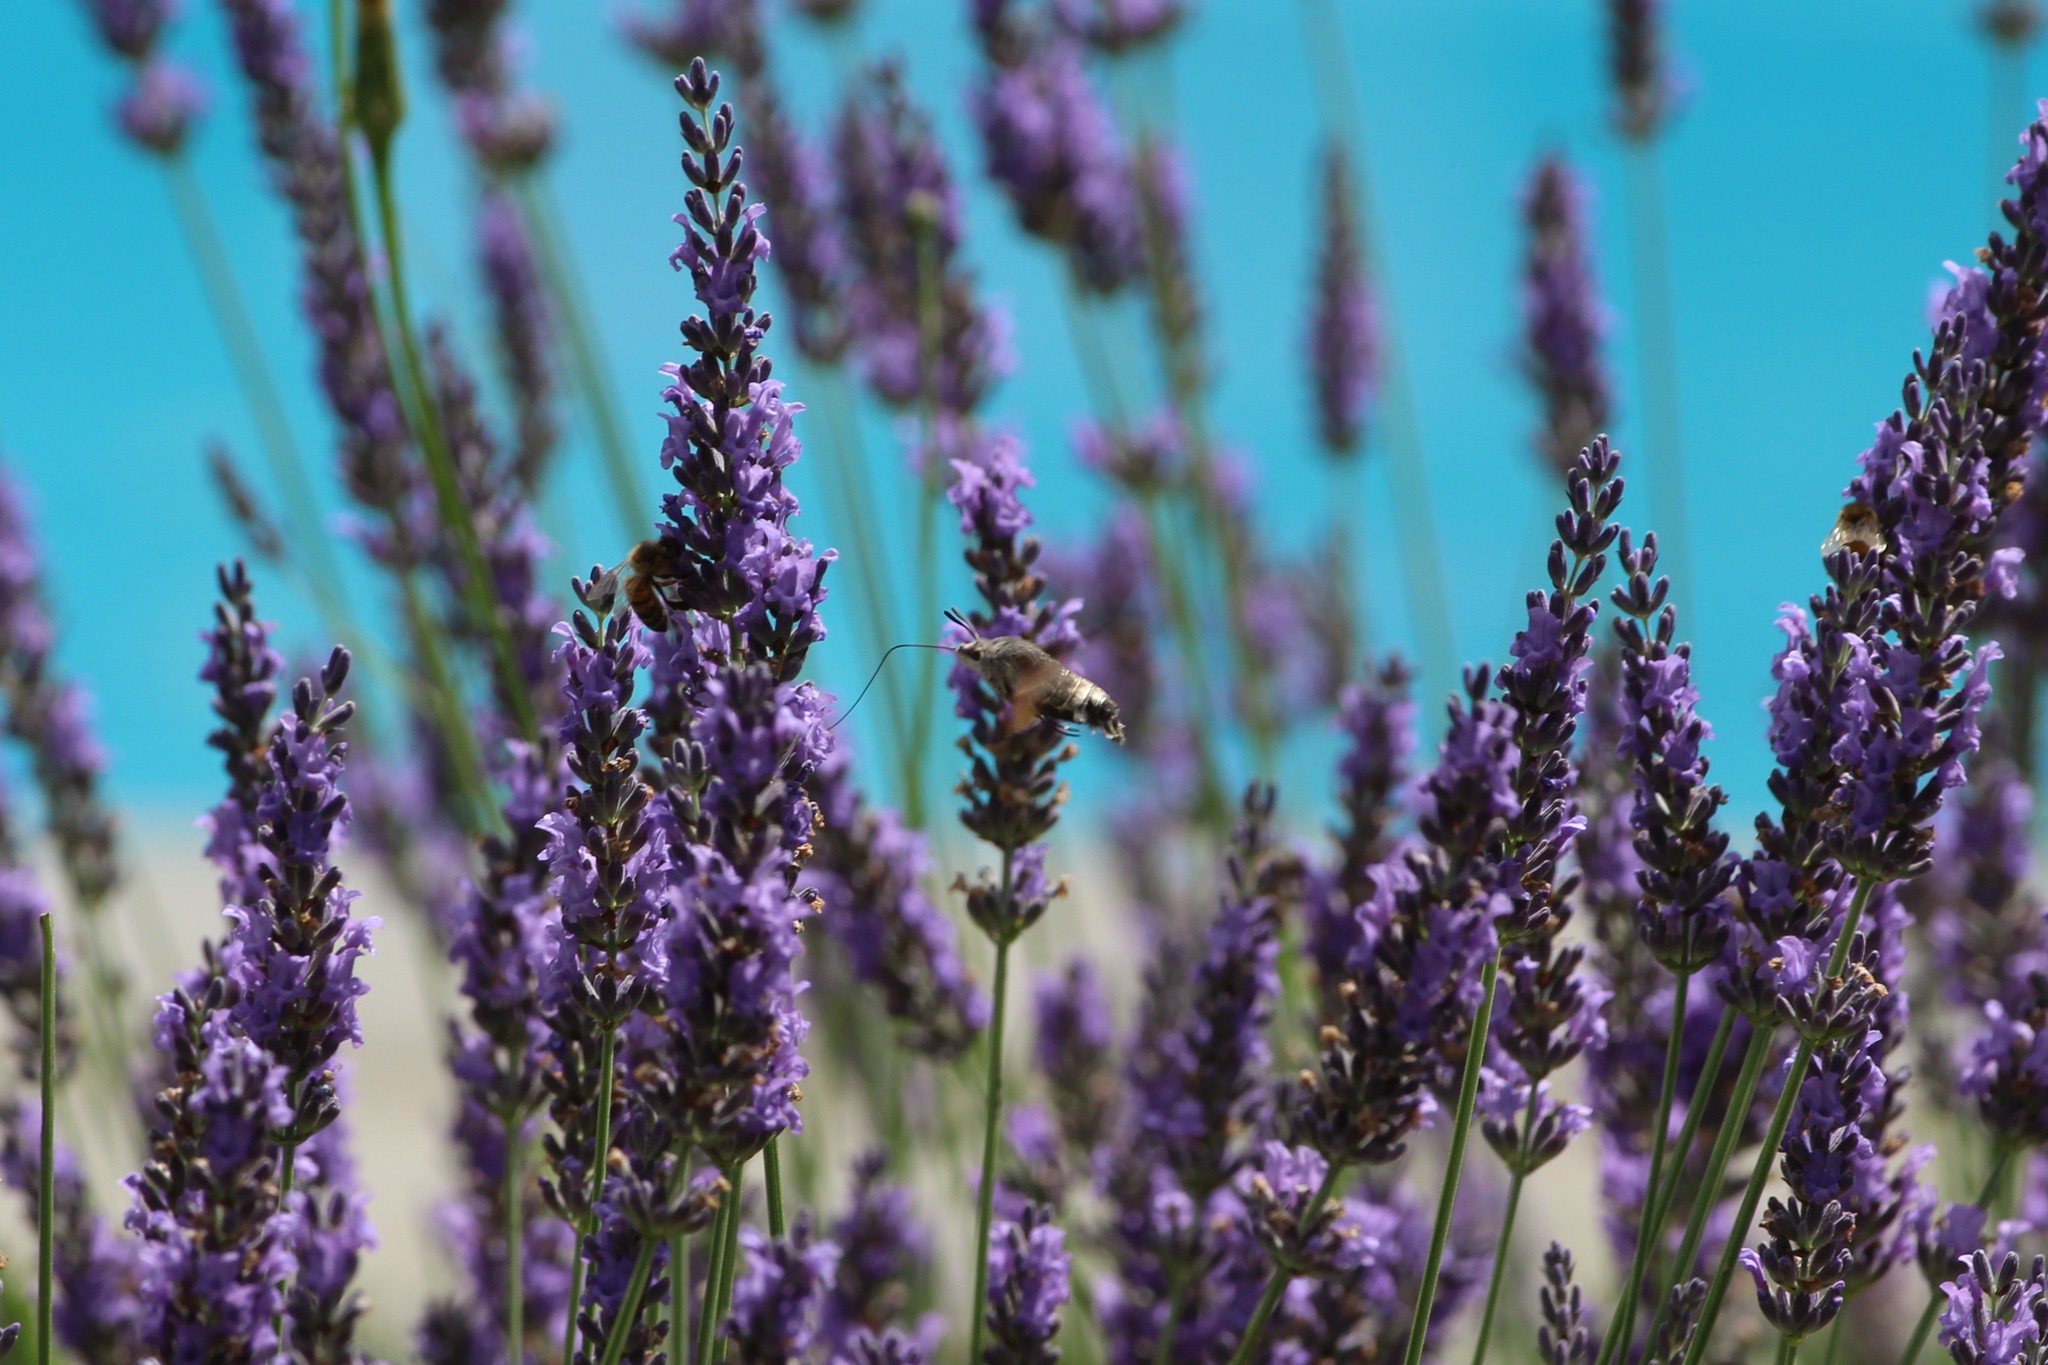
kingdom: Animalia
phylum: Arthropoda
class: Insecta
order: Lepidoptera
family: Sphingidae
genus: Macroglossum
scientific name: Macroglossum stellatarum
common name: Humming-bird hawk-moth
